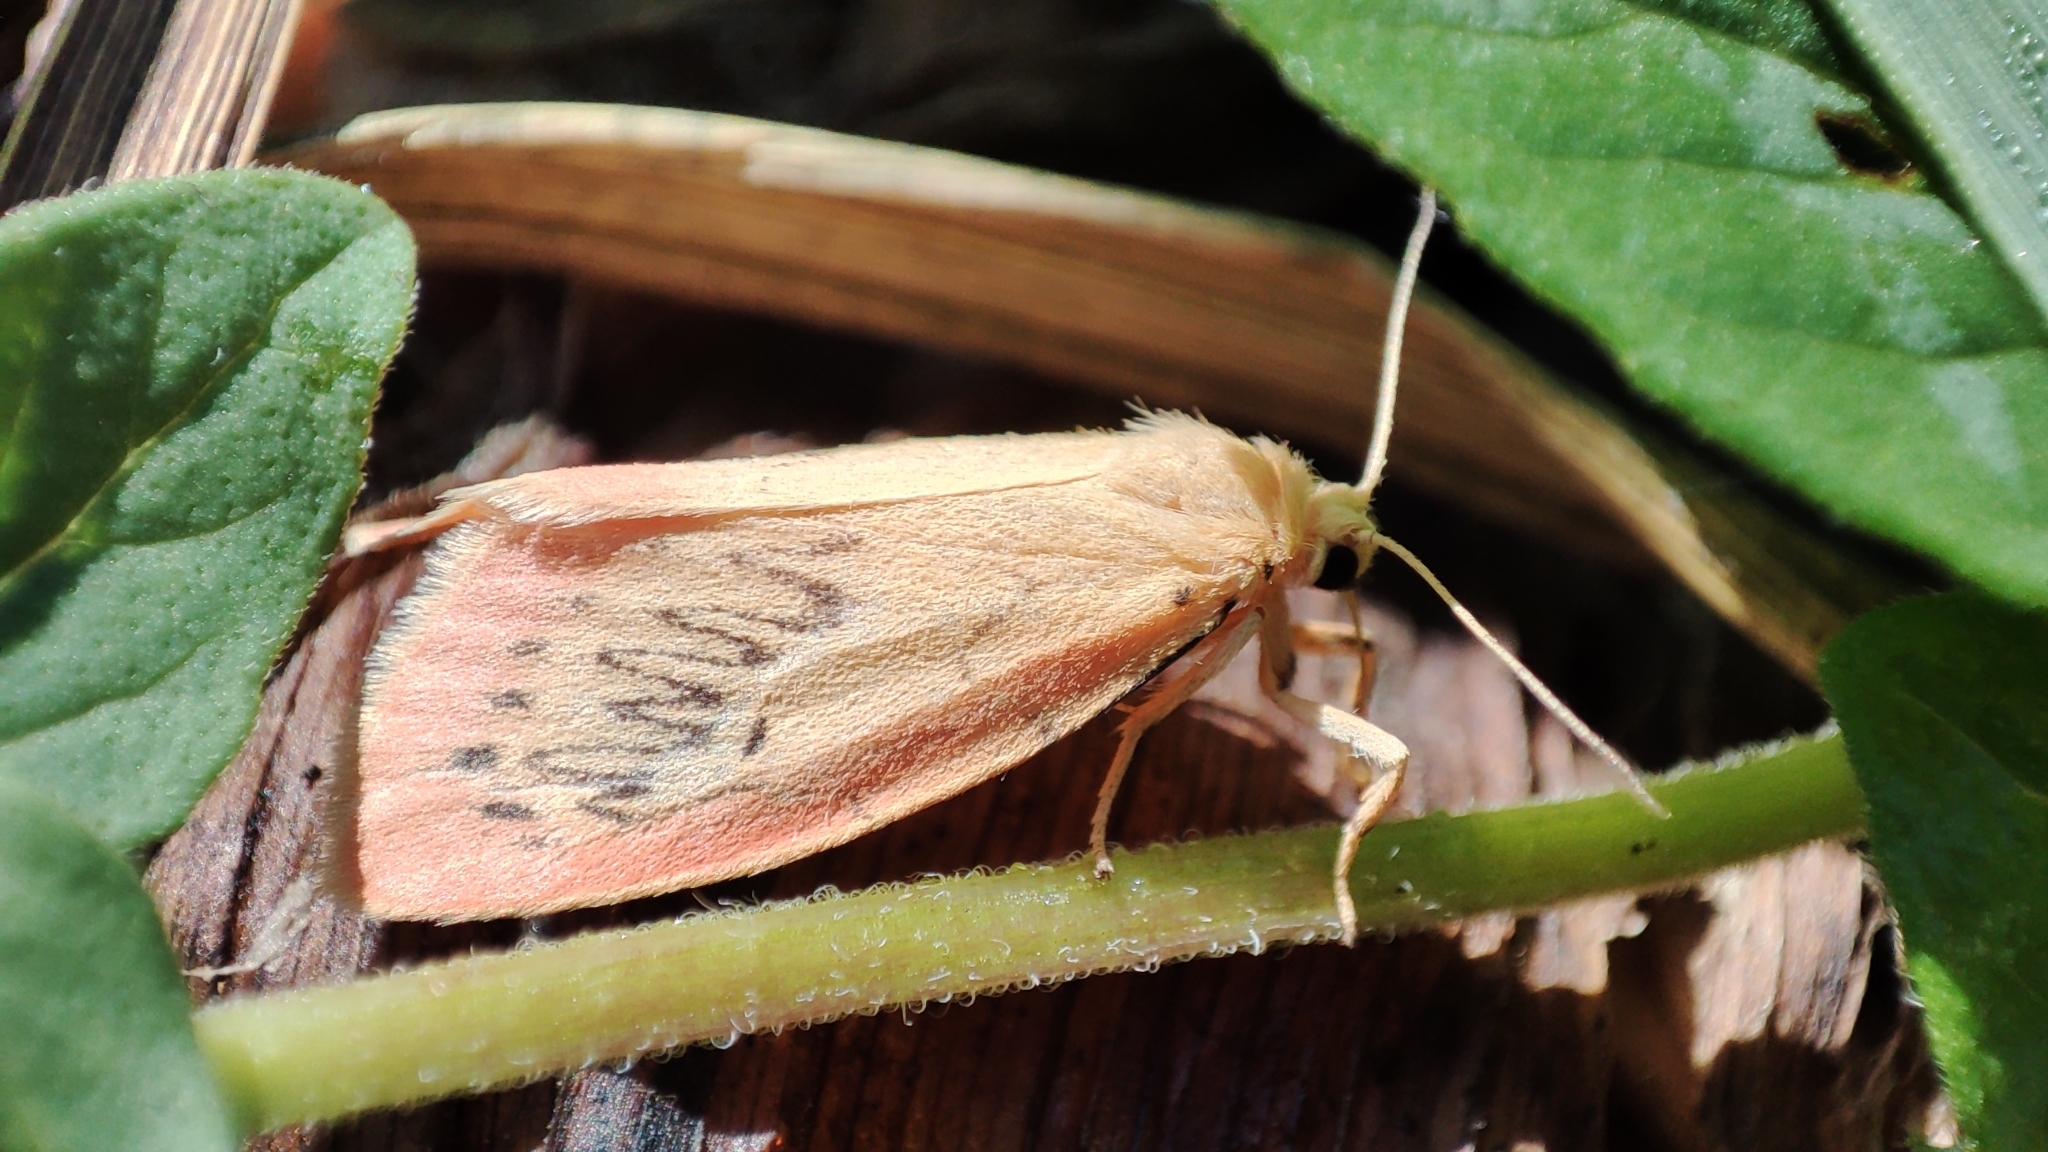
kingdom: Animalia
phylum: Arthropoda
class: Insecta
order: Lepidoptera
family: Erebidae
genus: Miltochrista
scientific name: Miltochrista miniata
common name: Rosy footman
